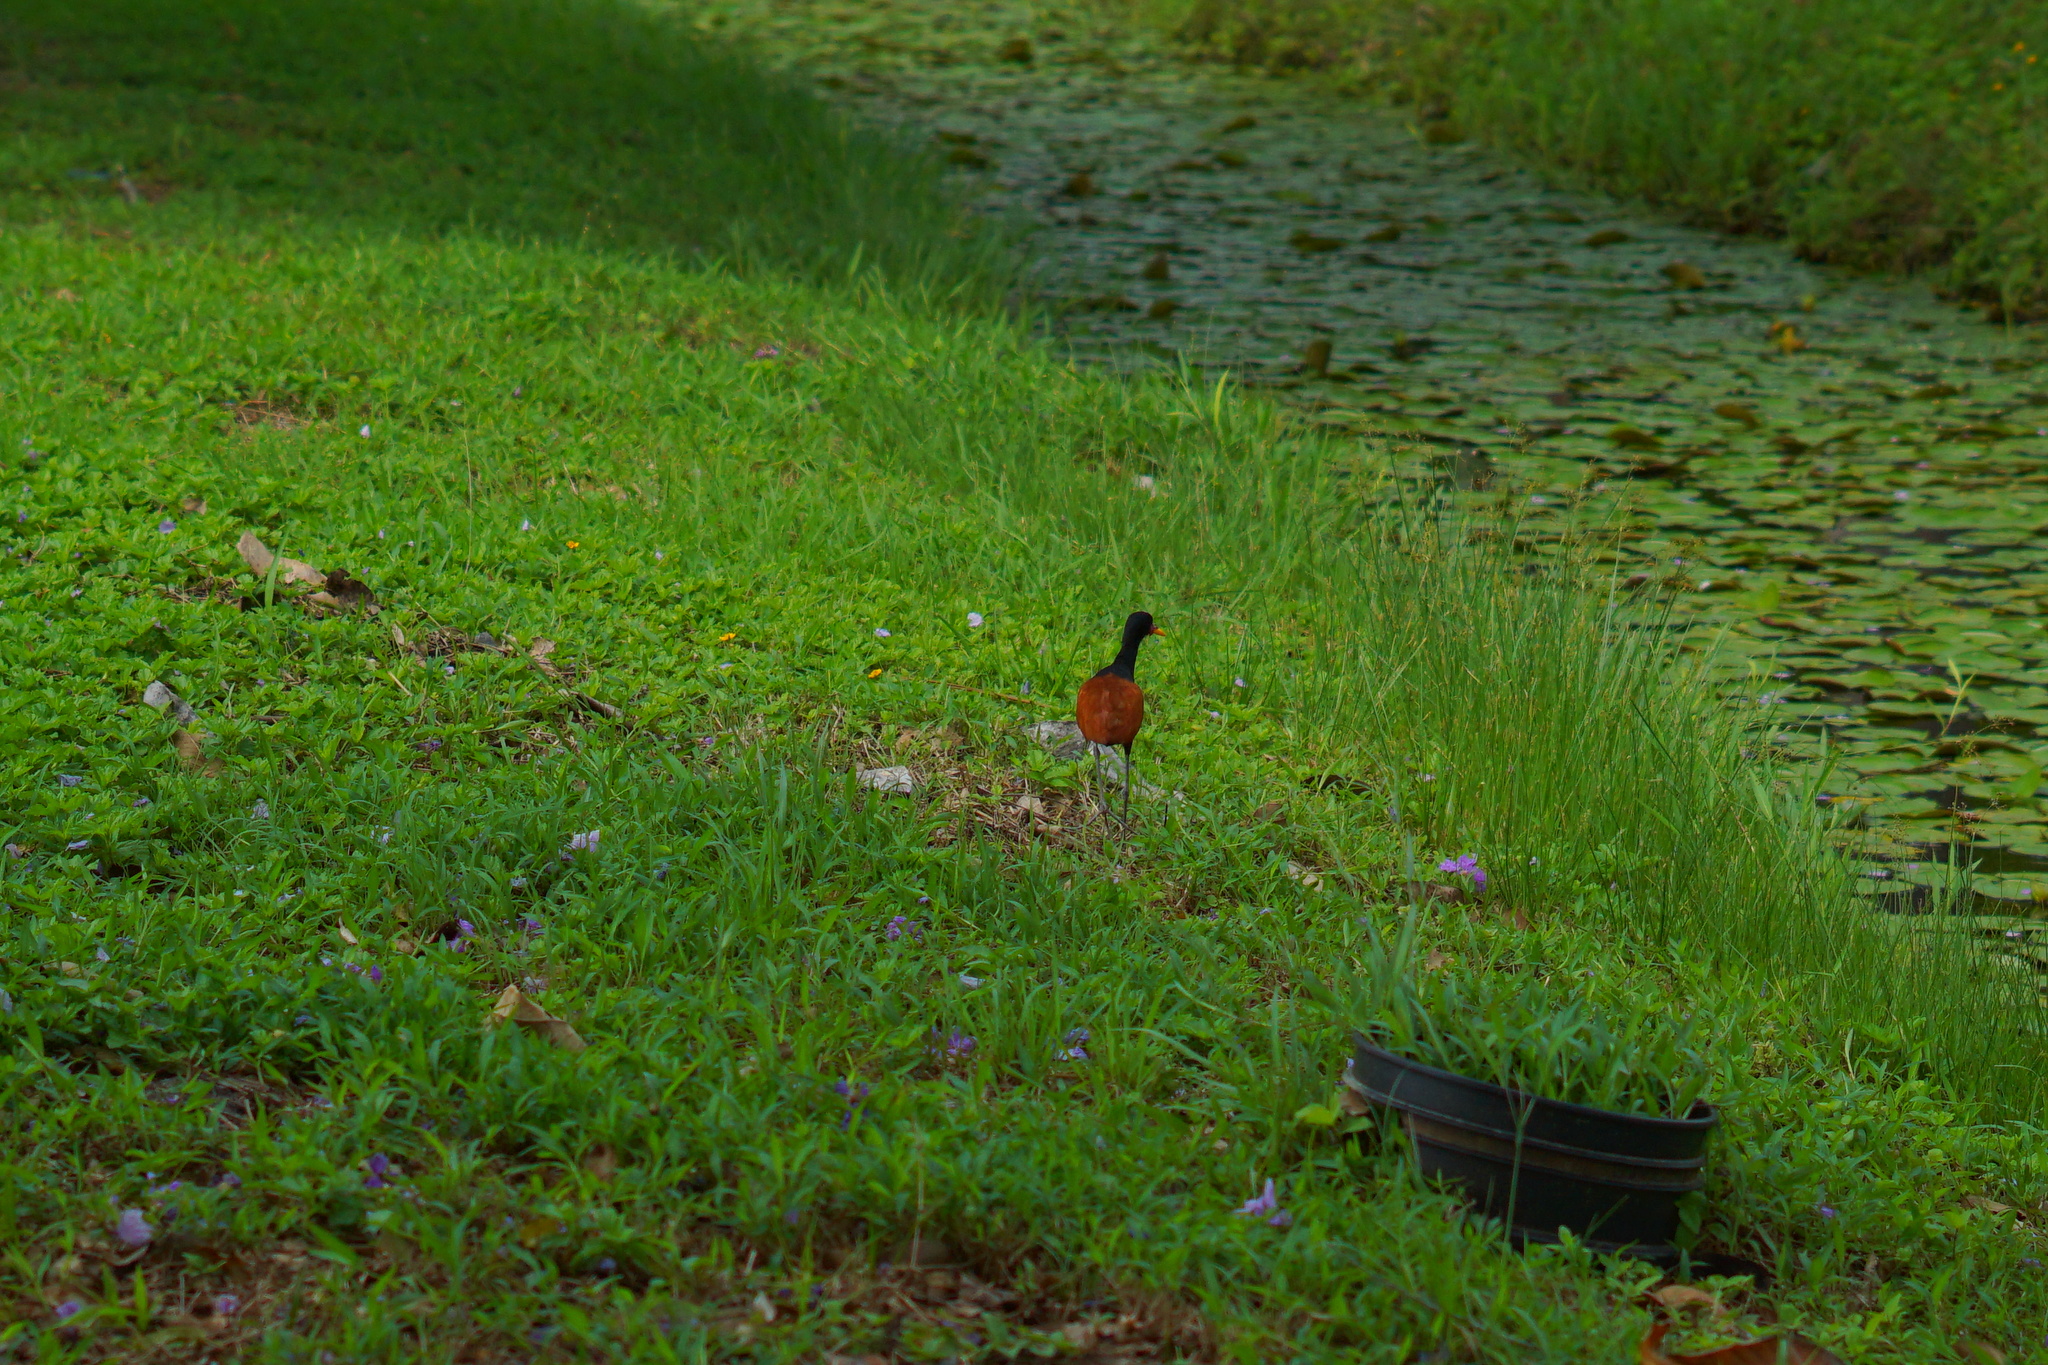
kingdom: Animalia
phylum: Chordata
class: Aves
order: Charadriiformes
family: Jacanidae
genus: Jacana
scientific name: Jacana jacana
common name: Wattled jacana
